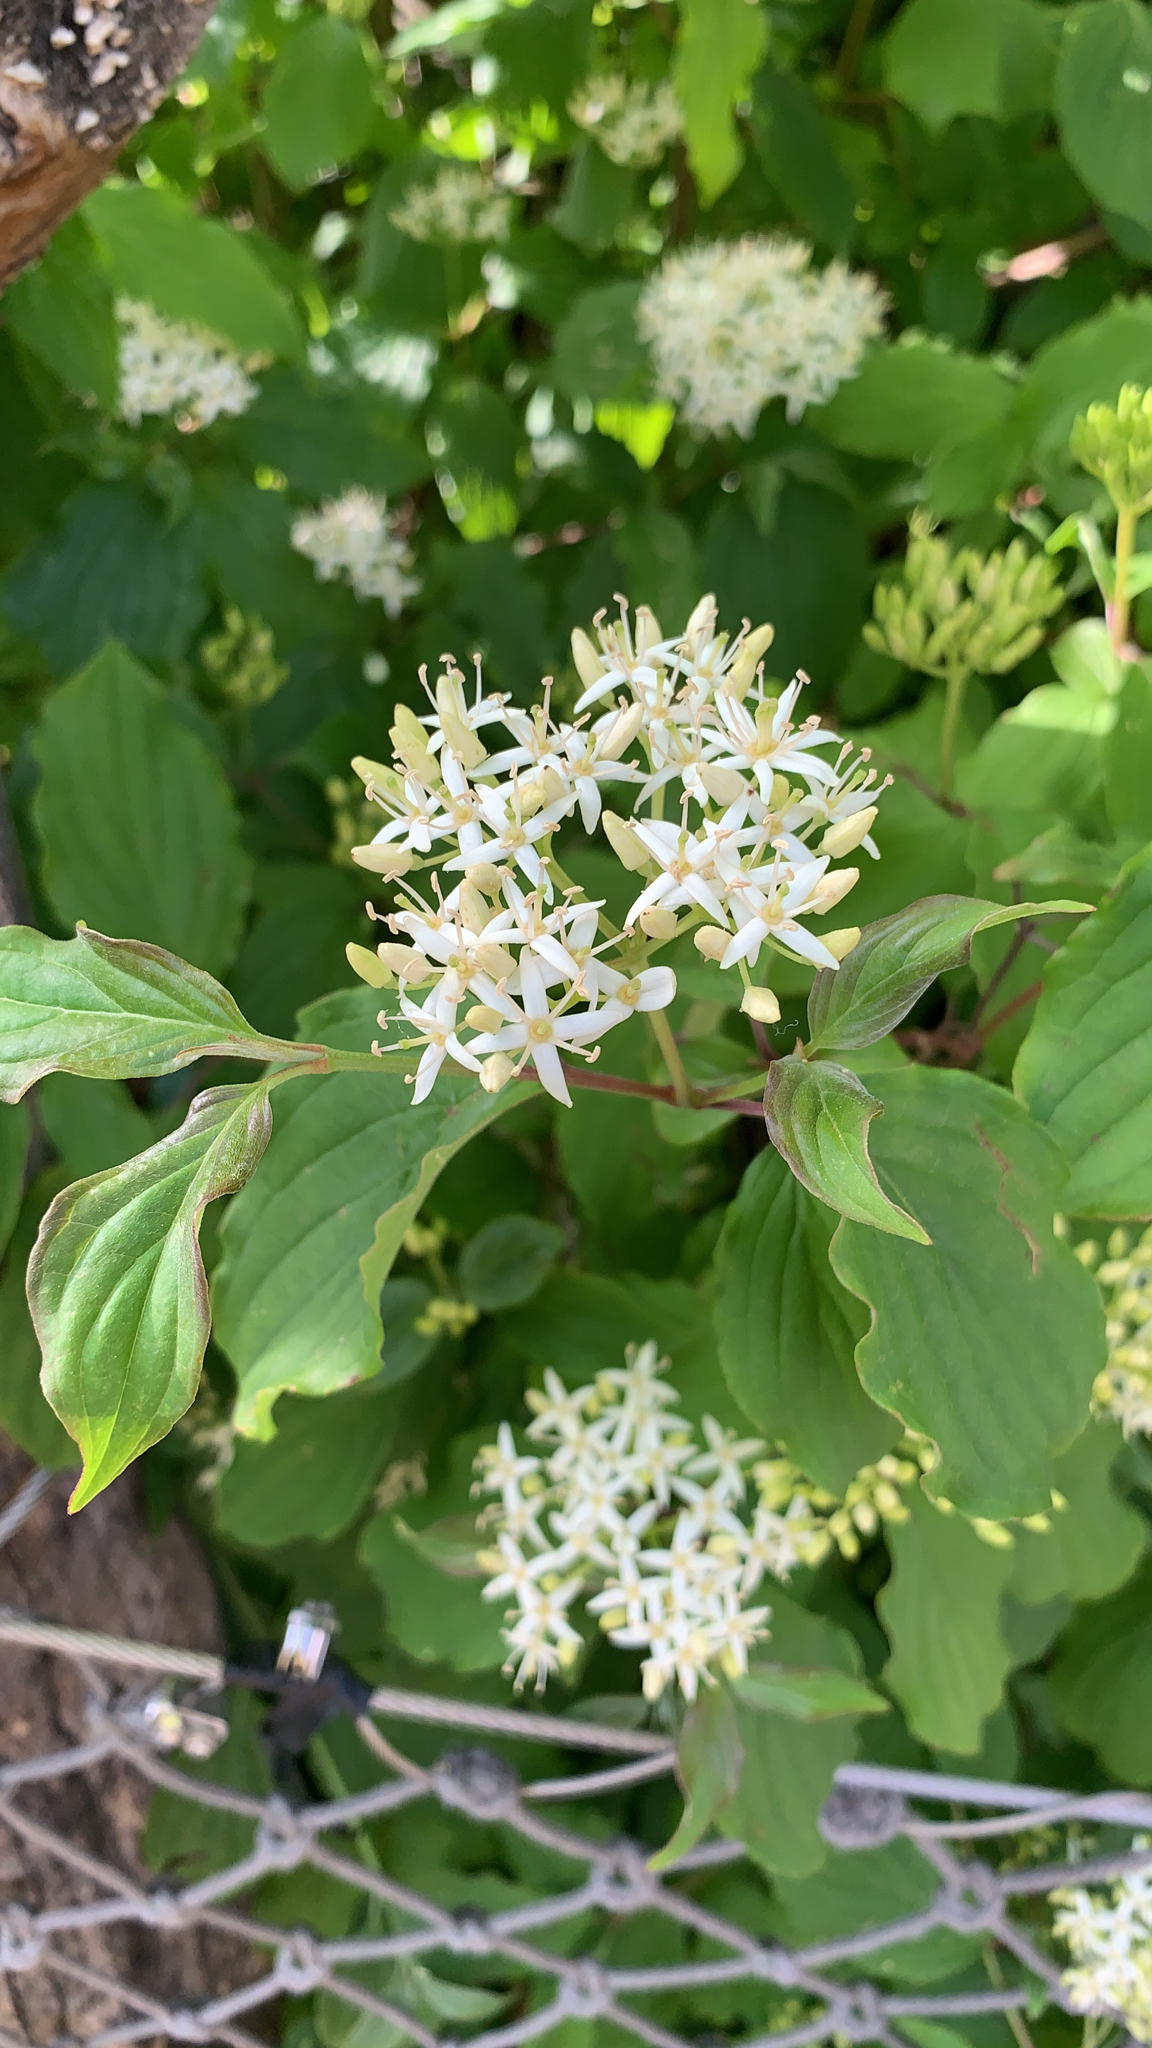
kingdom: Plantae
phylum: Tracheophyta
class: Magnoliopsida
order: Cornales
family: Cornaceae
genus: Cornus
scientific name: Cornus sanguinea
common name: Dogwood
